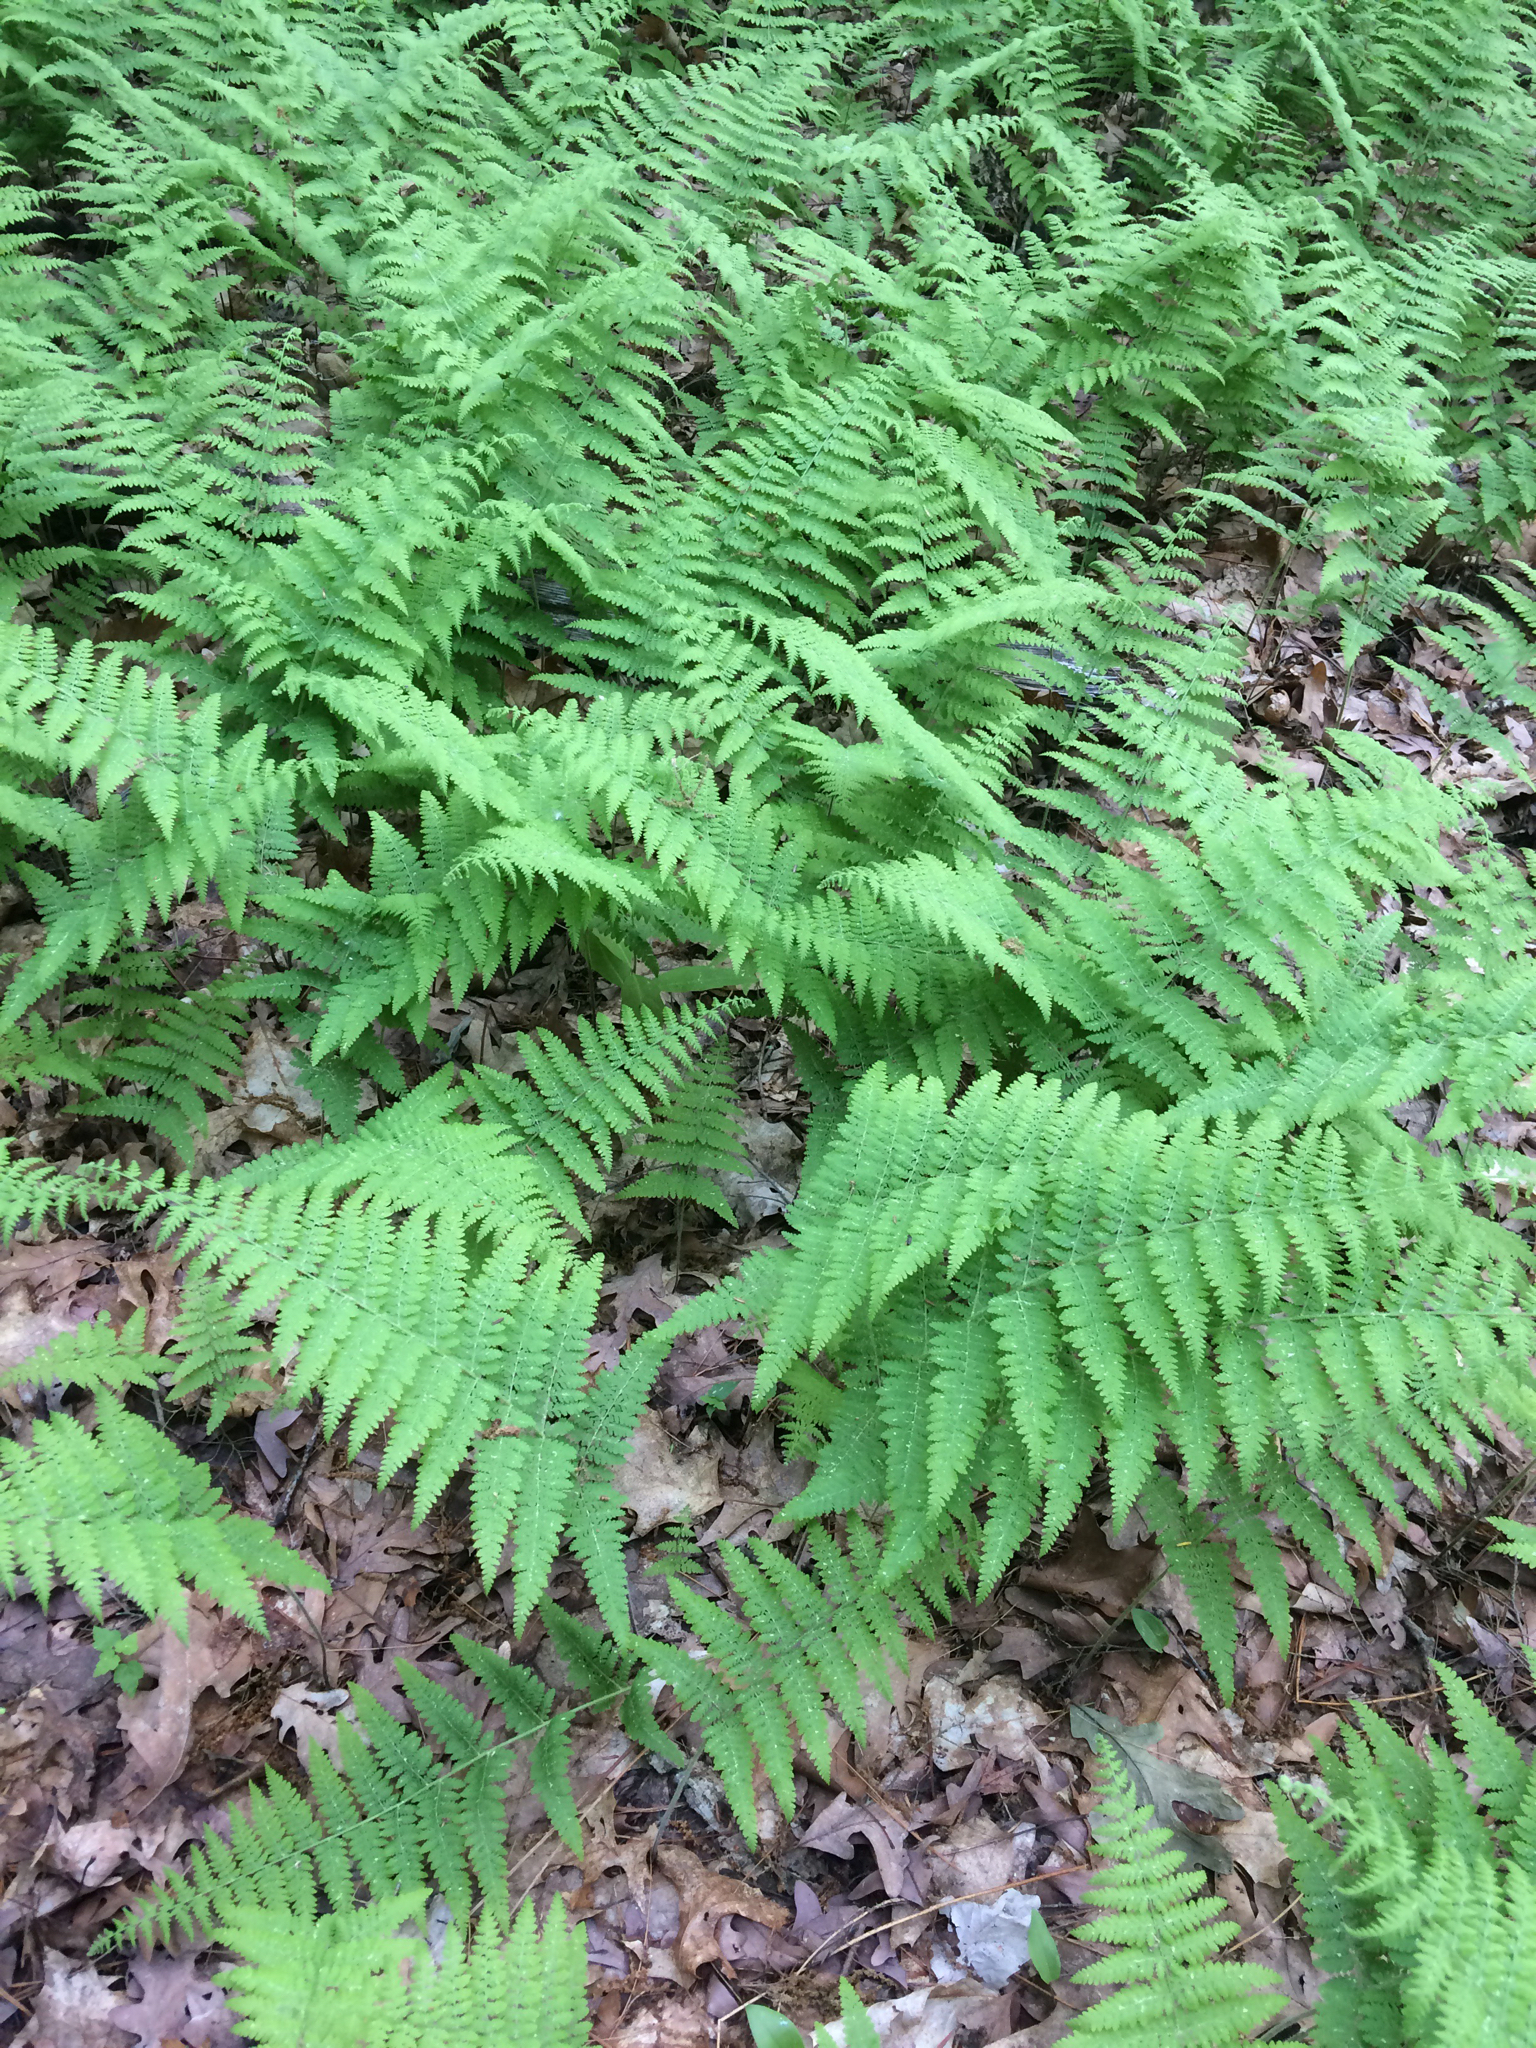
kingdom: Plantae
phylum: Tracheophyta
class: Polypodiopsida
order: Polypodiales
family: Dennstaedtiaceae
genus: Sitobolium
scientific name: Sitobolium punctilobum
